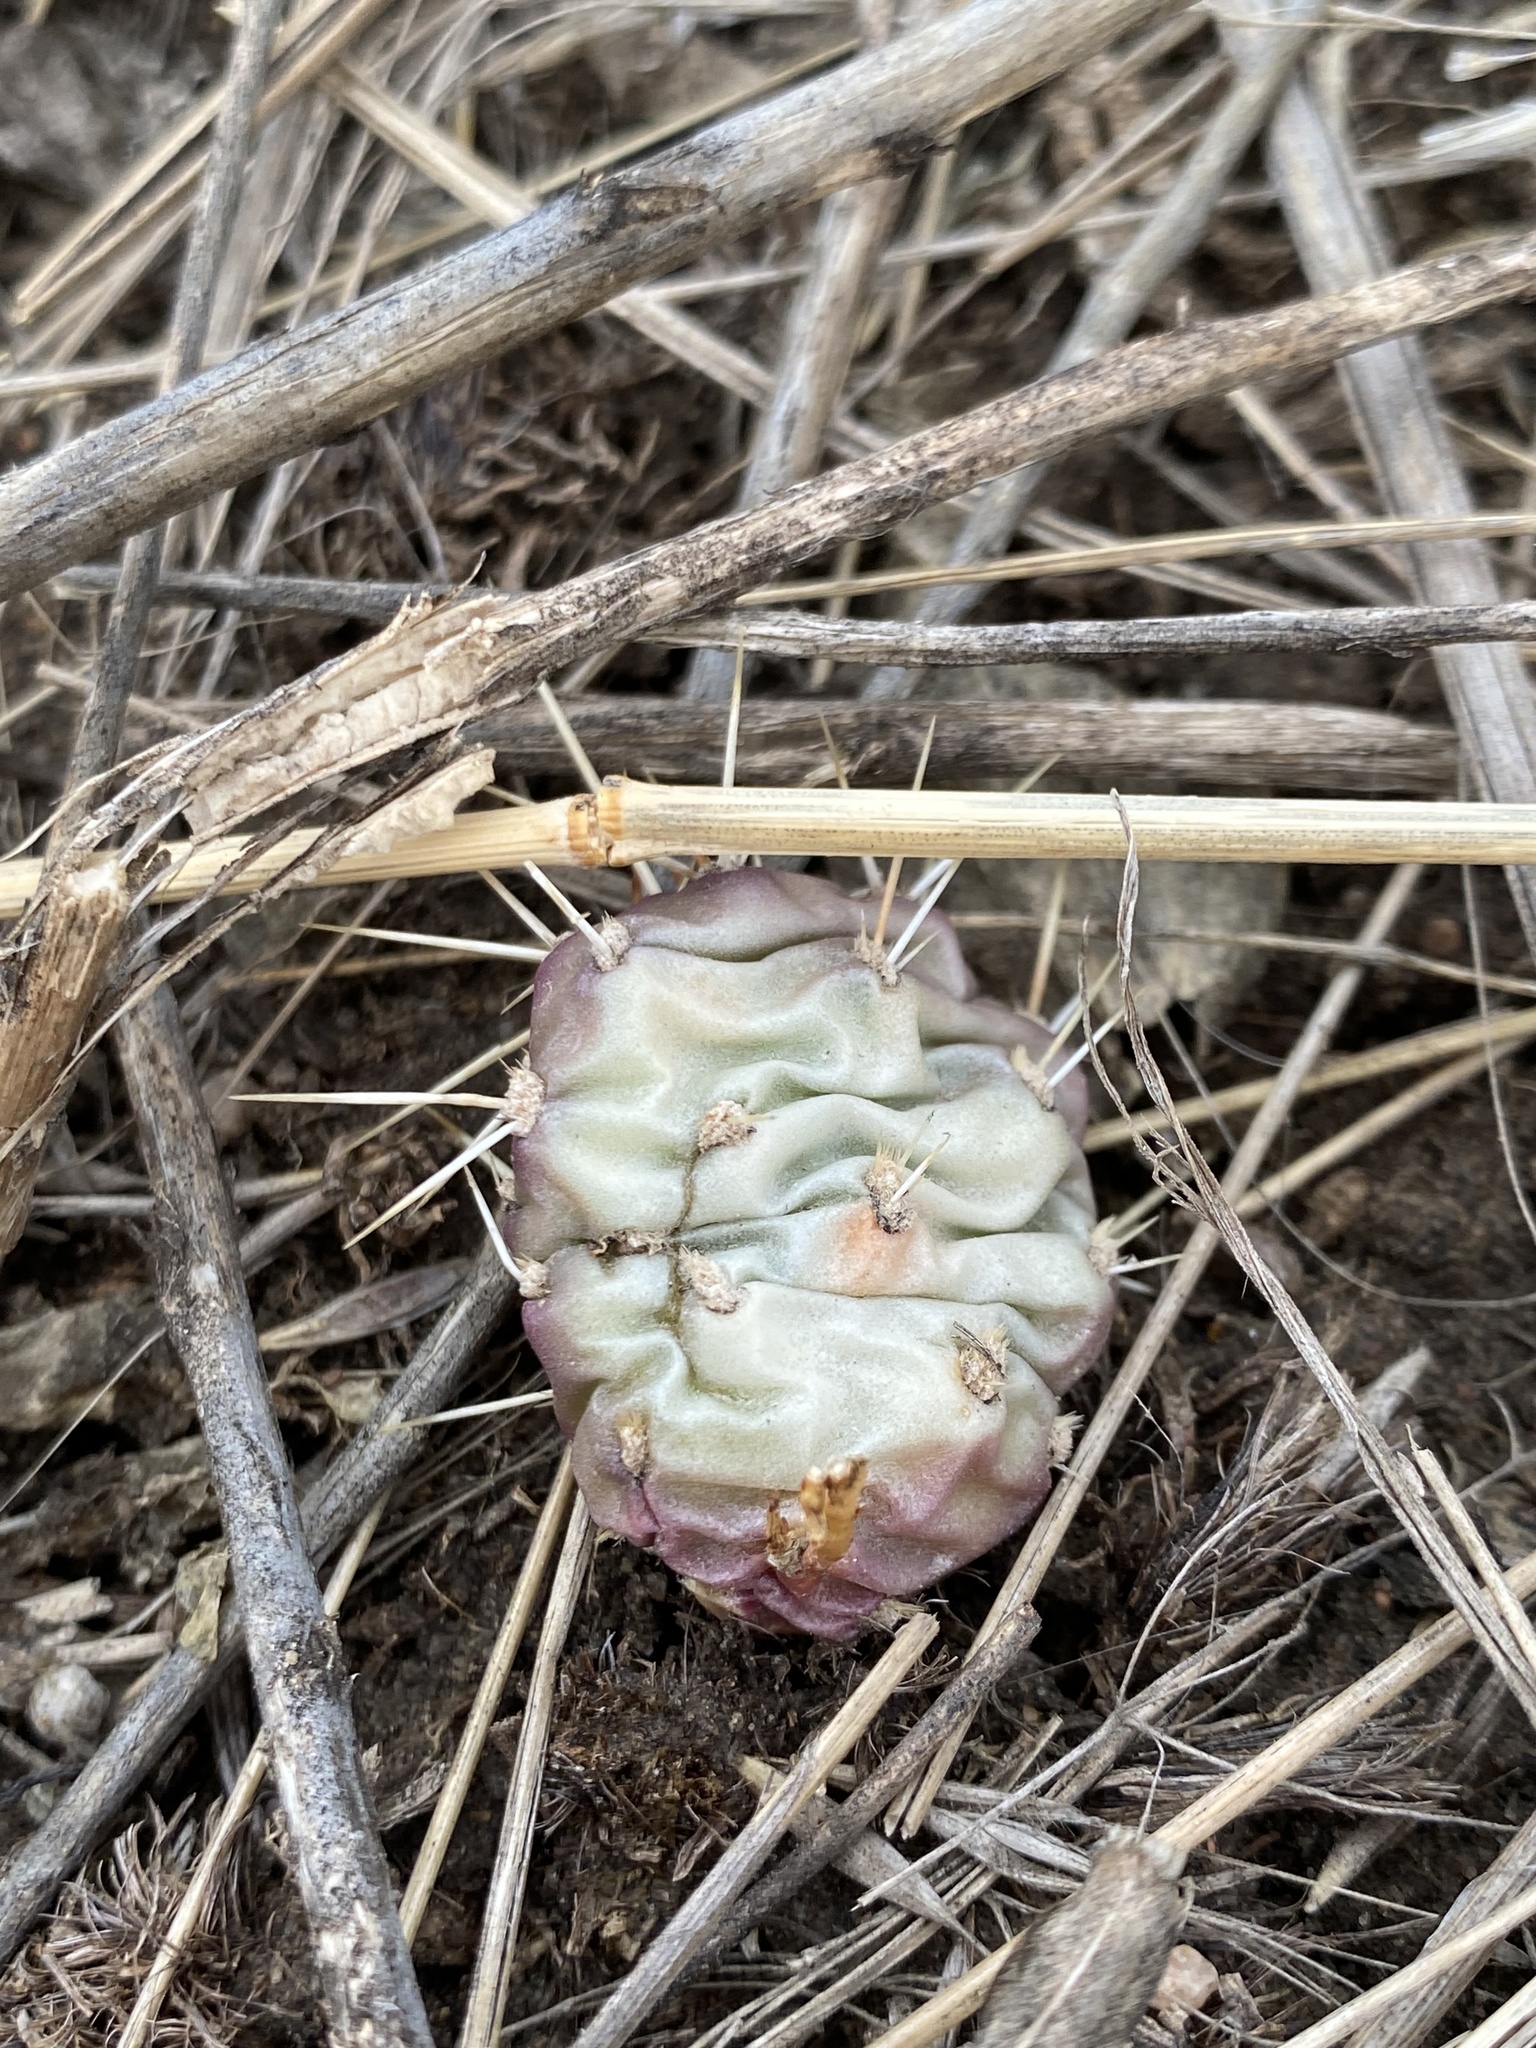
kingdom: Plantae
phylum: Tracheophyta
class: Magnoliopsida
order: Caryophyllales
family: Cactaceae
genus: Opuntia
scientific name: Opuntia fragilis
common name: Brittle cactus
